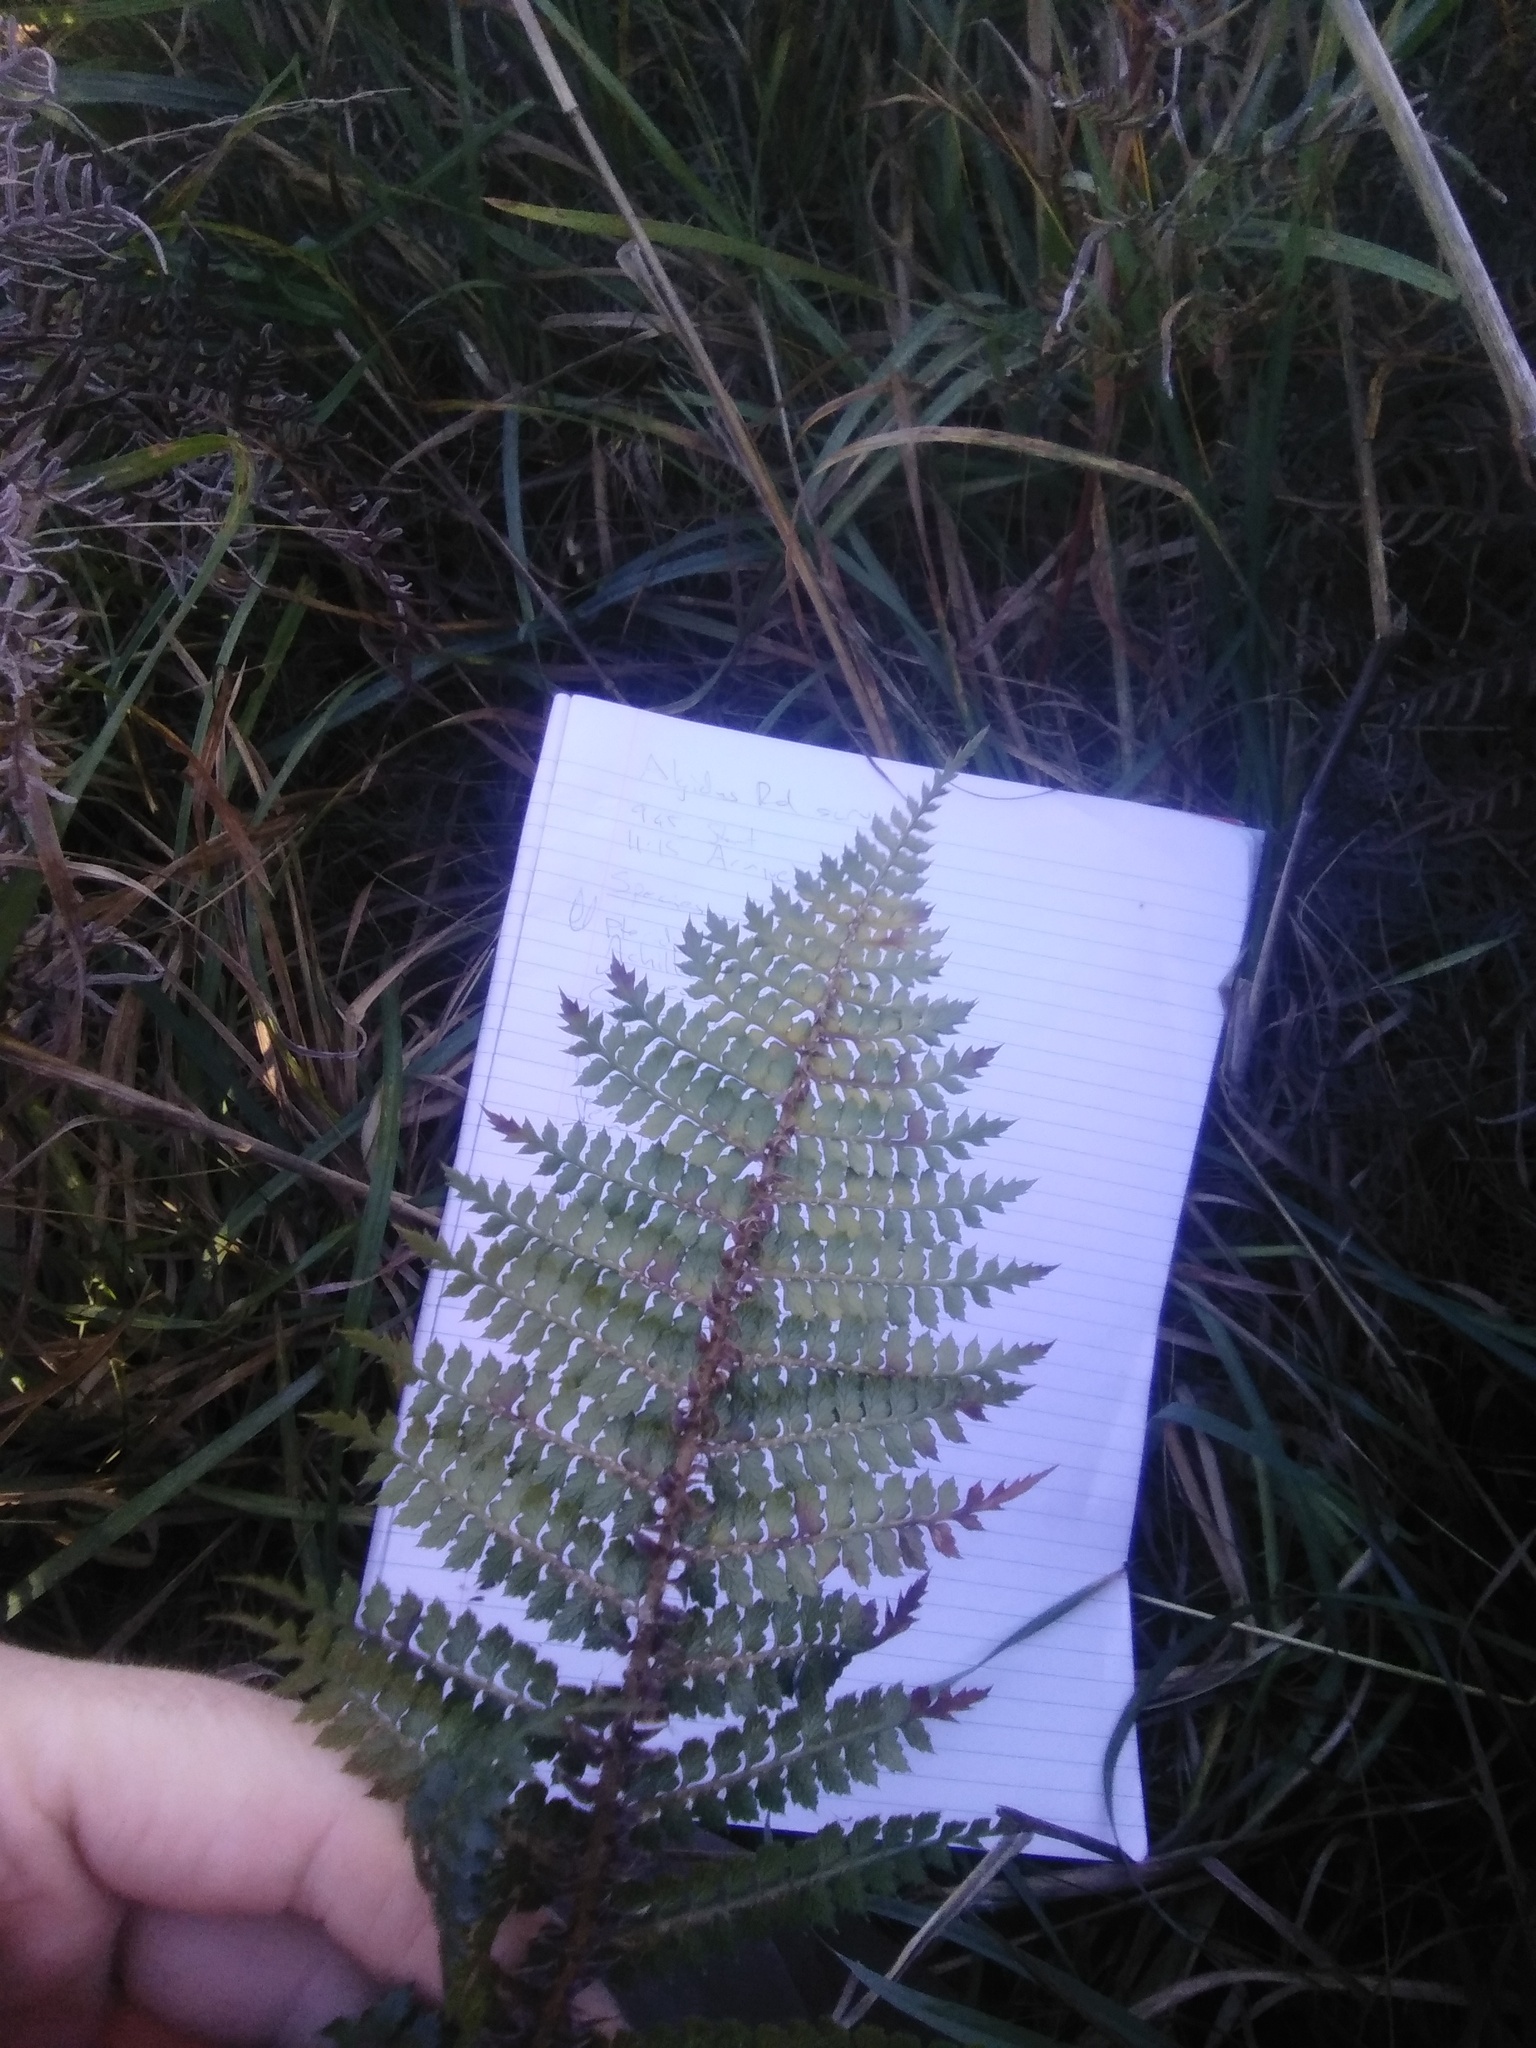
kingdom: Plantae
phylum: Tracheophyta
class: Polypodiopsida
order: Polypodiales
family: Dryopteridaceae
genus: Polystichum
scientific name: Polystichum vestitum
